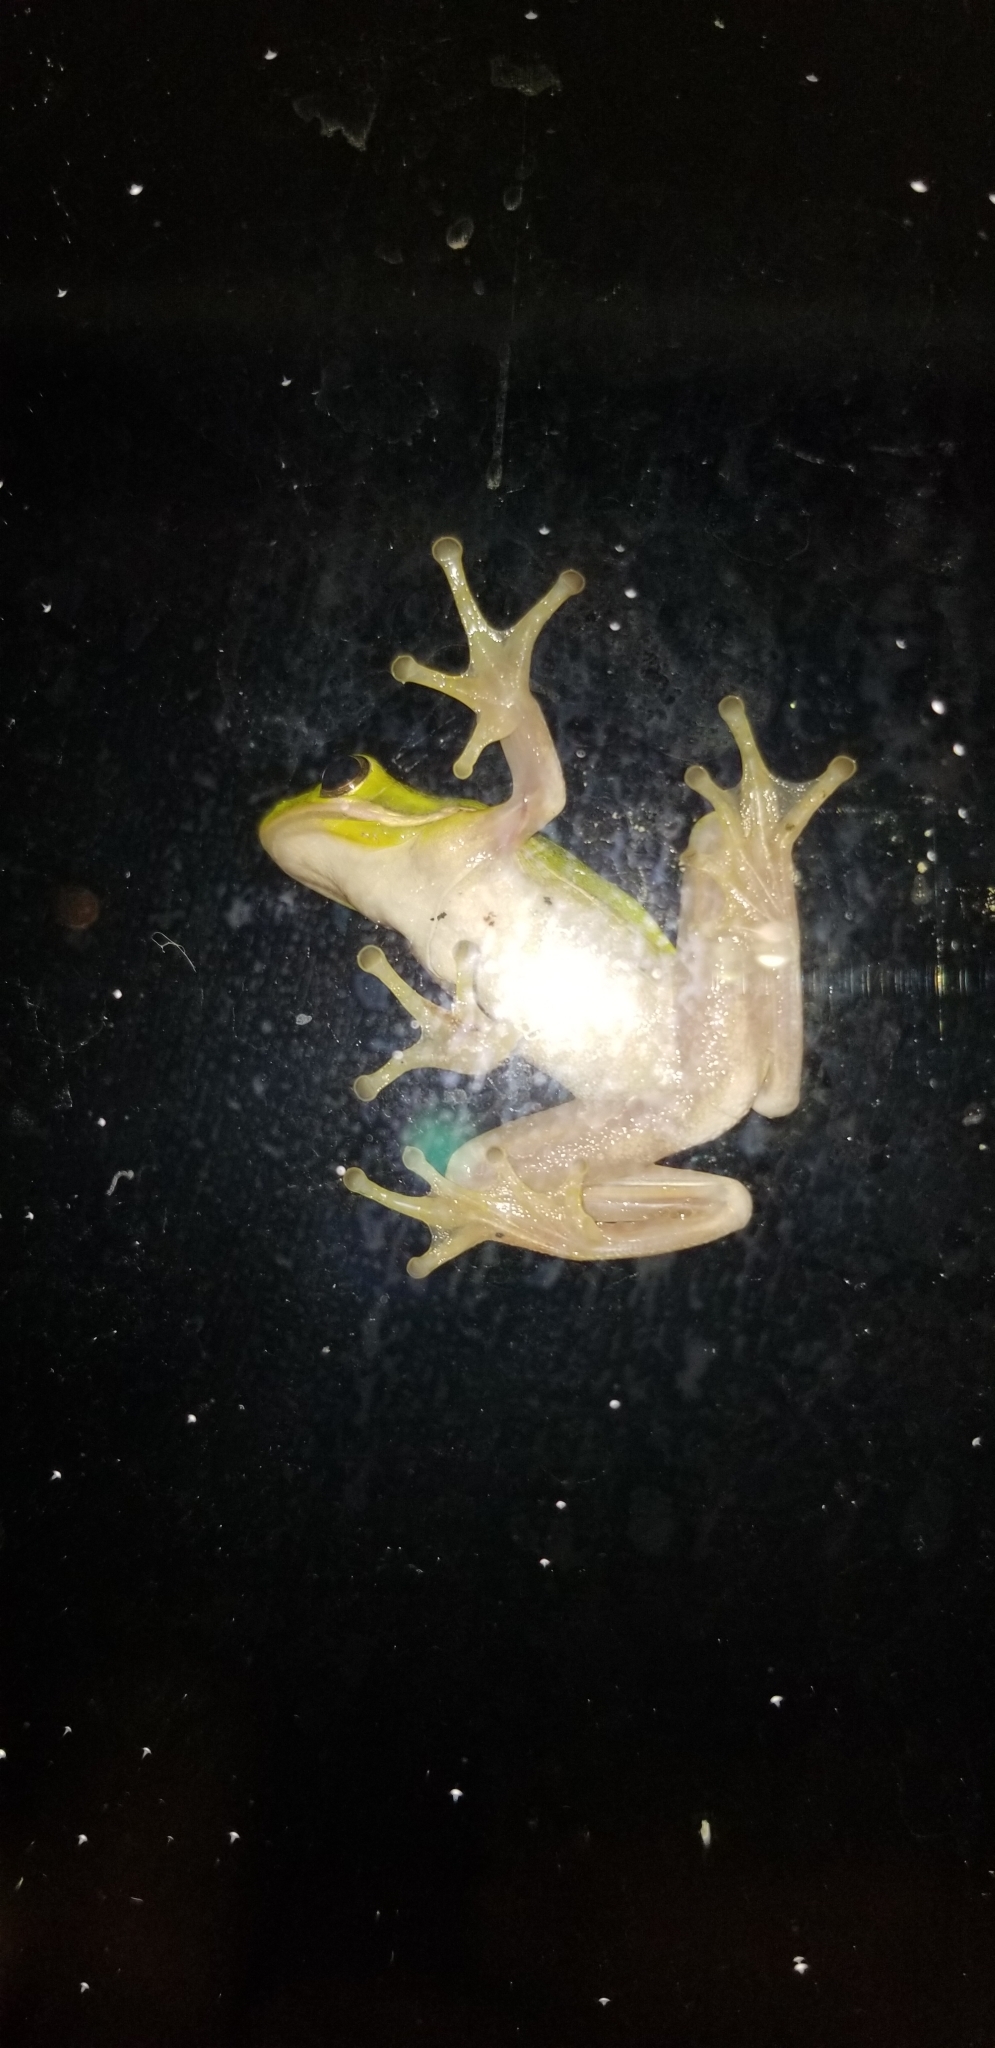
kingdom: Animalia
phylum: Chordata
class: Amphibia
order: Anura
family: Hylidae
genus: Dryophytes
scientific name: Dryophytes cinereus
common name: Green treefrog
